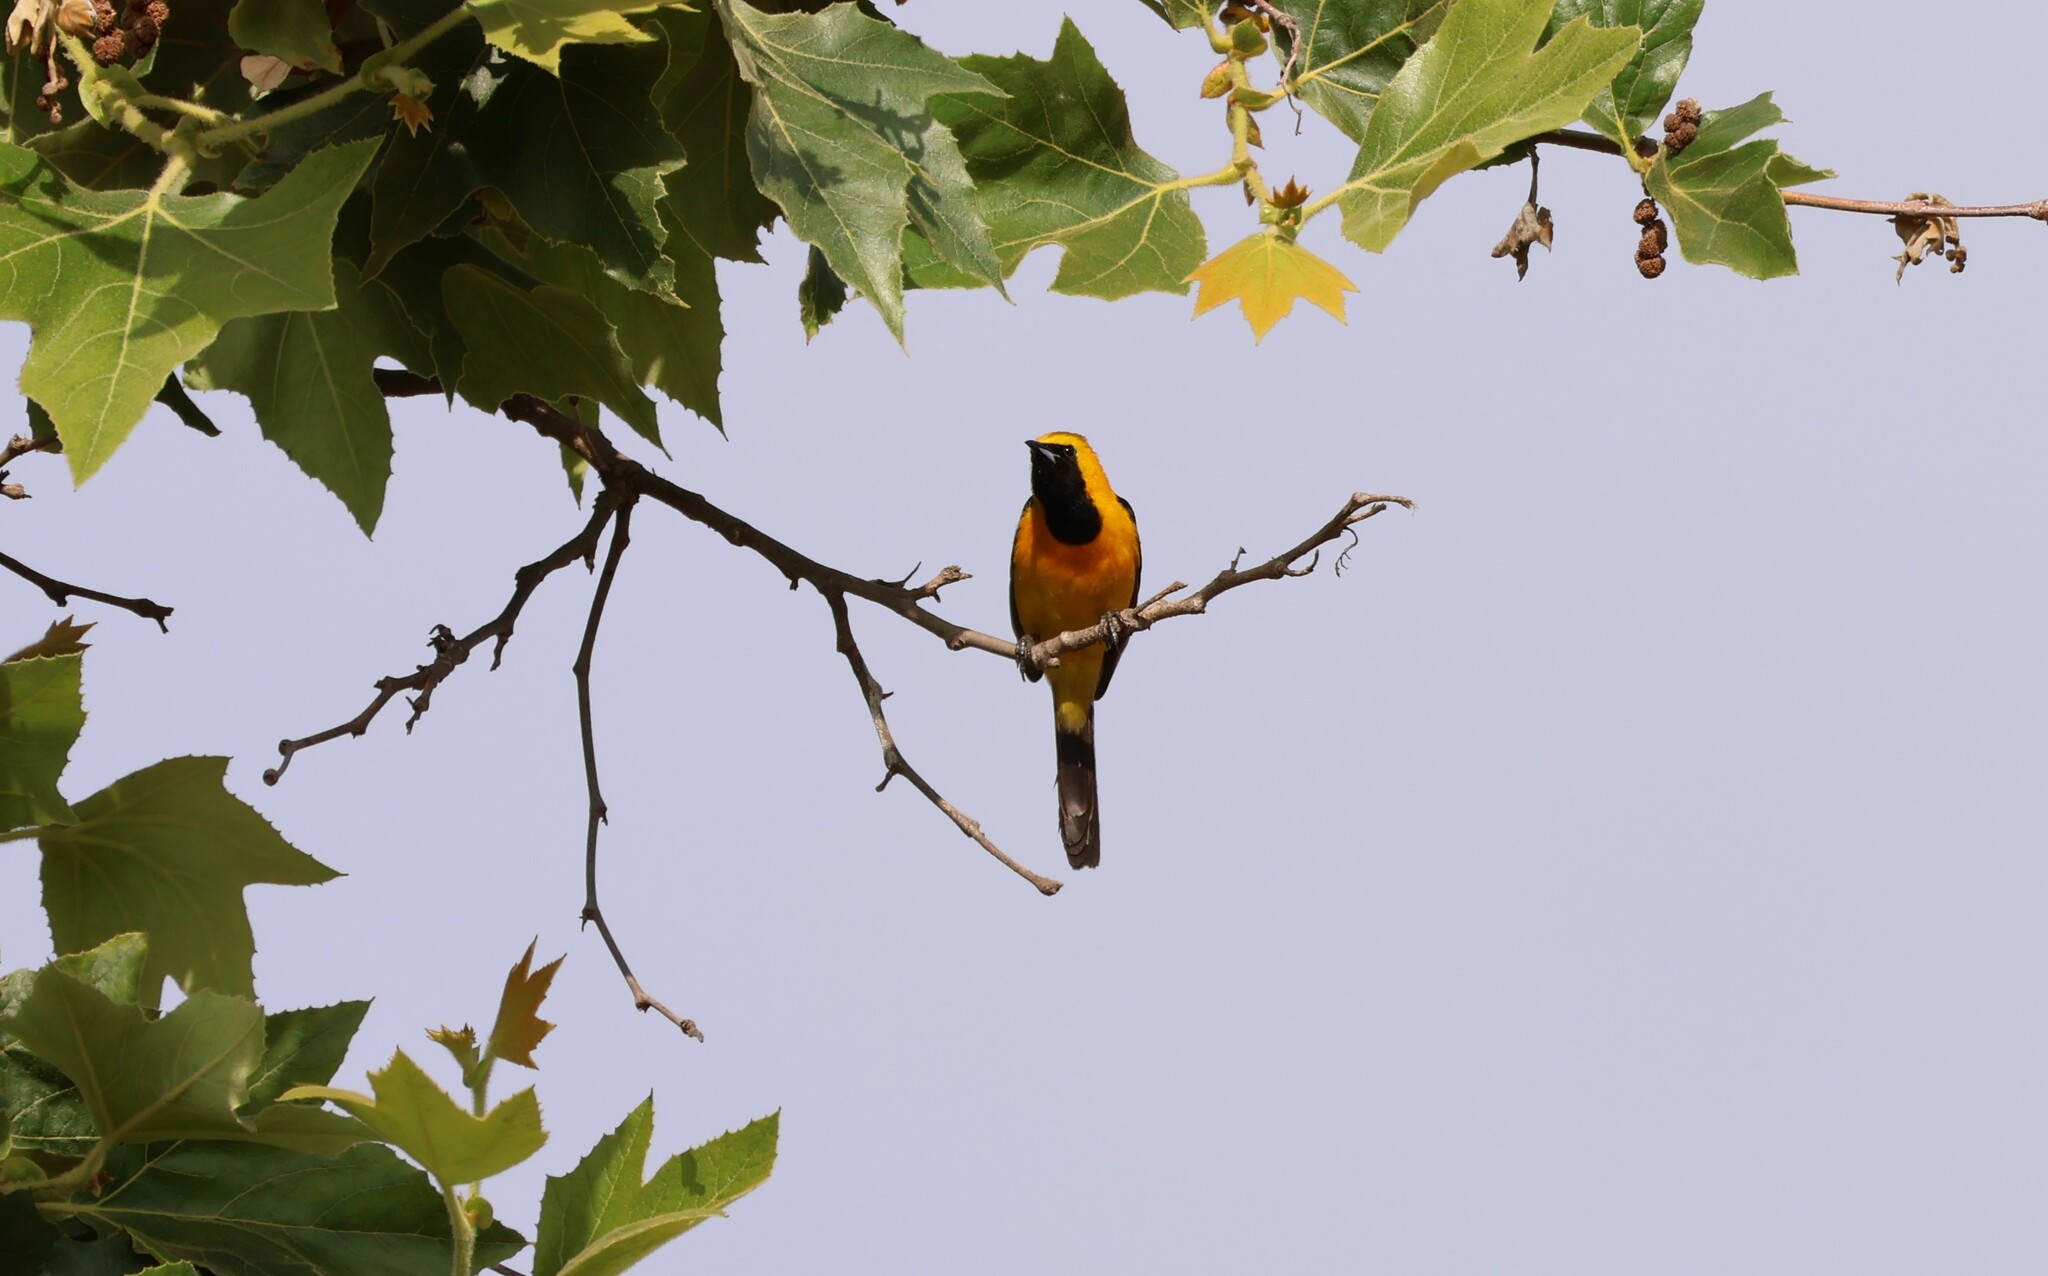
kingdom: Animalia
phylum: Chordata
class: Aves
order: Passeriformes
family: Icteridae
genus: Icterus
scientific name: Icterus cucullatus
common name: Hooded oriole
